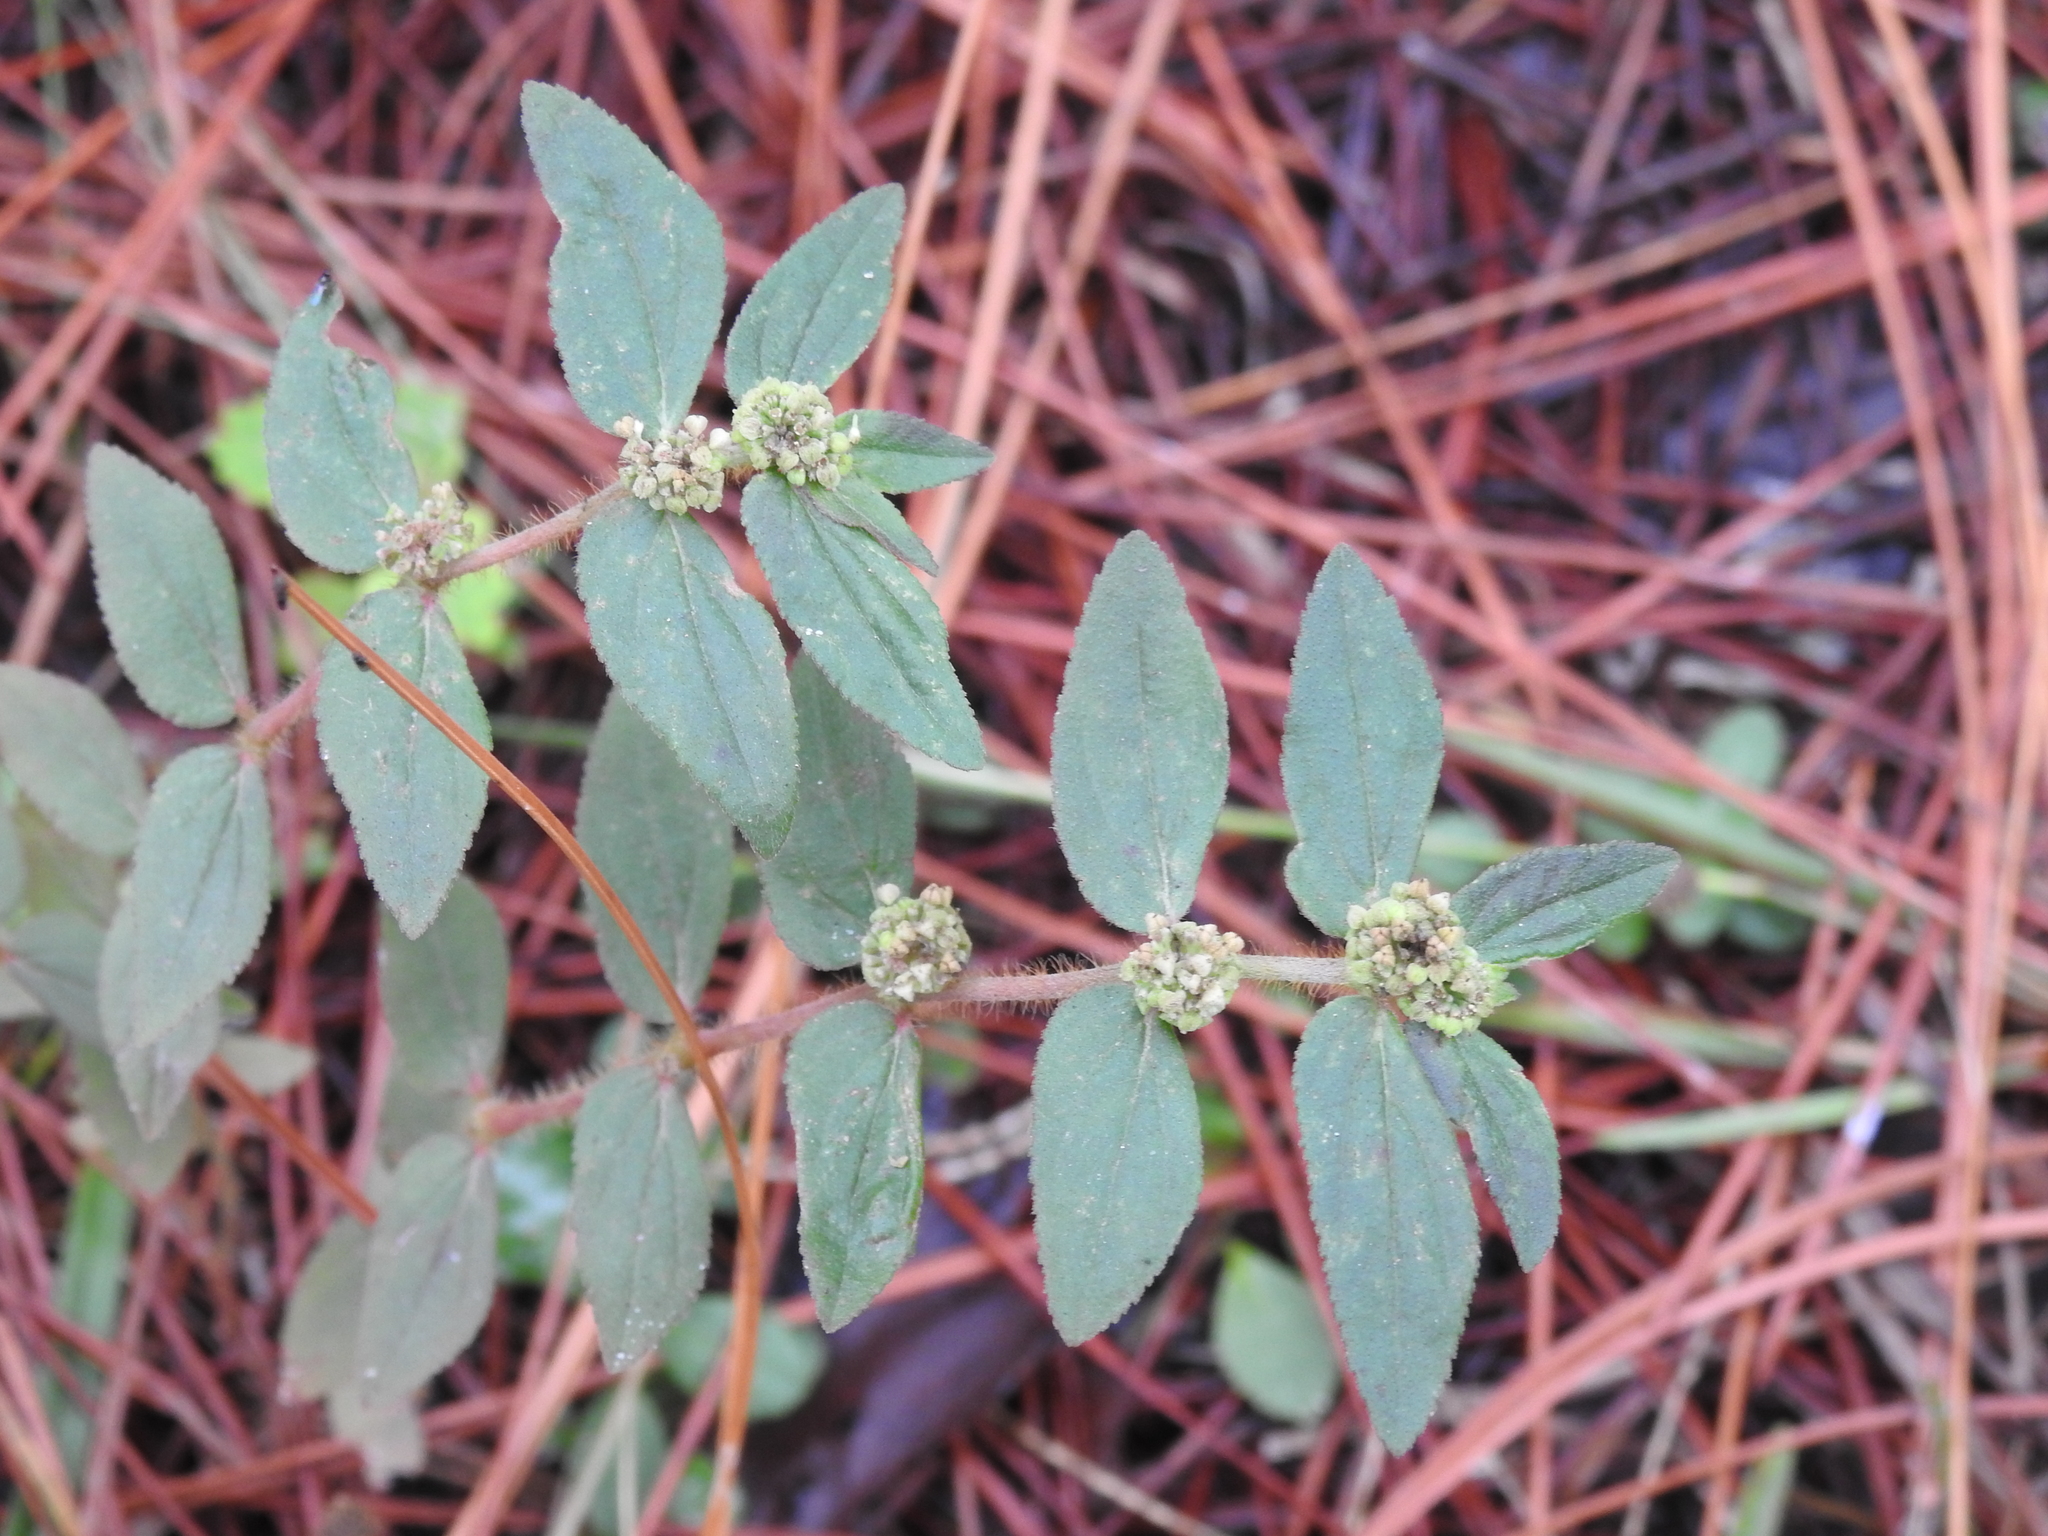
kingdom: Plantae
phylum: Tracheophyta
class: Magnoliopsida
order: Malpighiales
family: Euphorbiaceae
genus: Euphorbia
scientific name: Euphorbia hirta
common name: Pillpod sandmat
